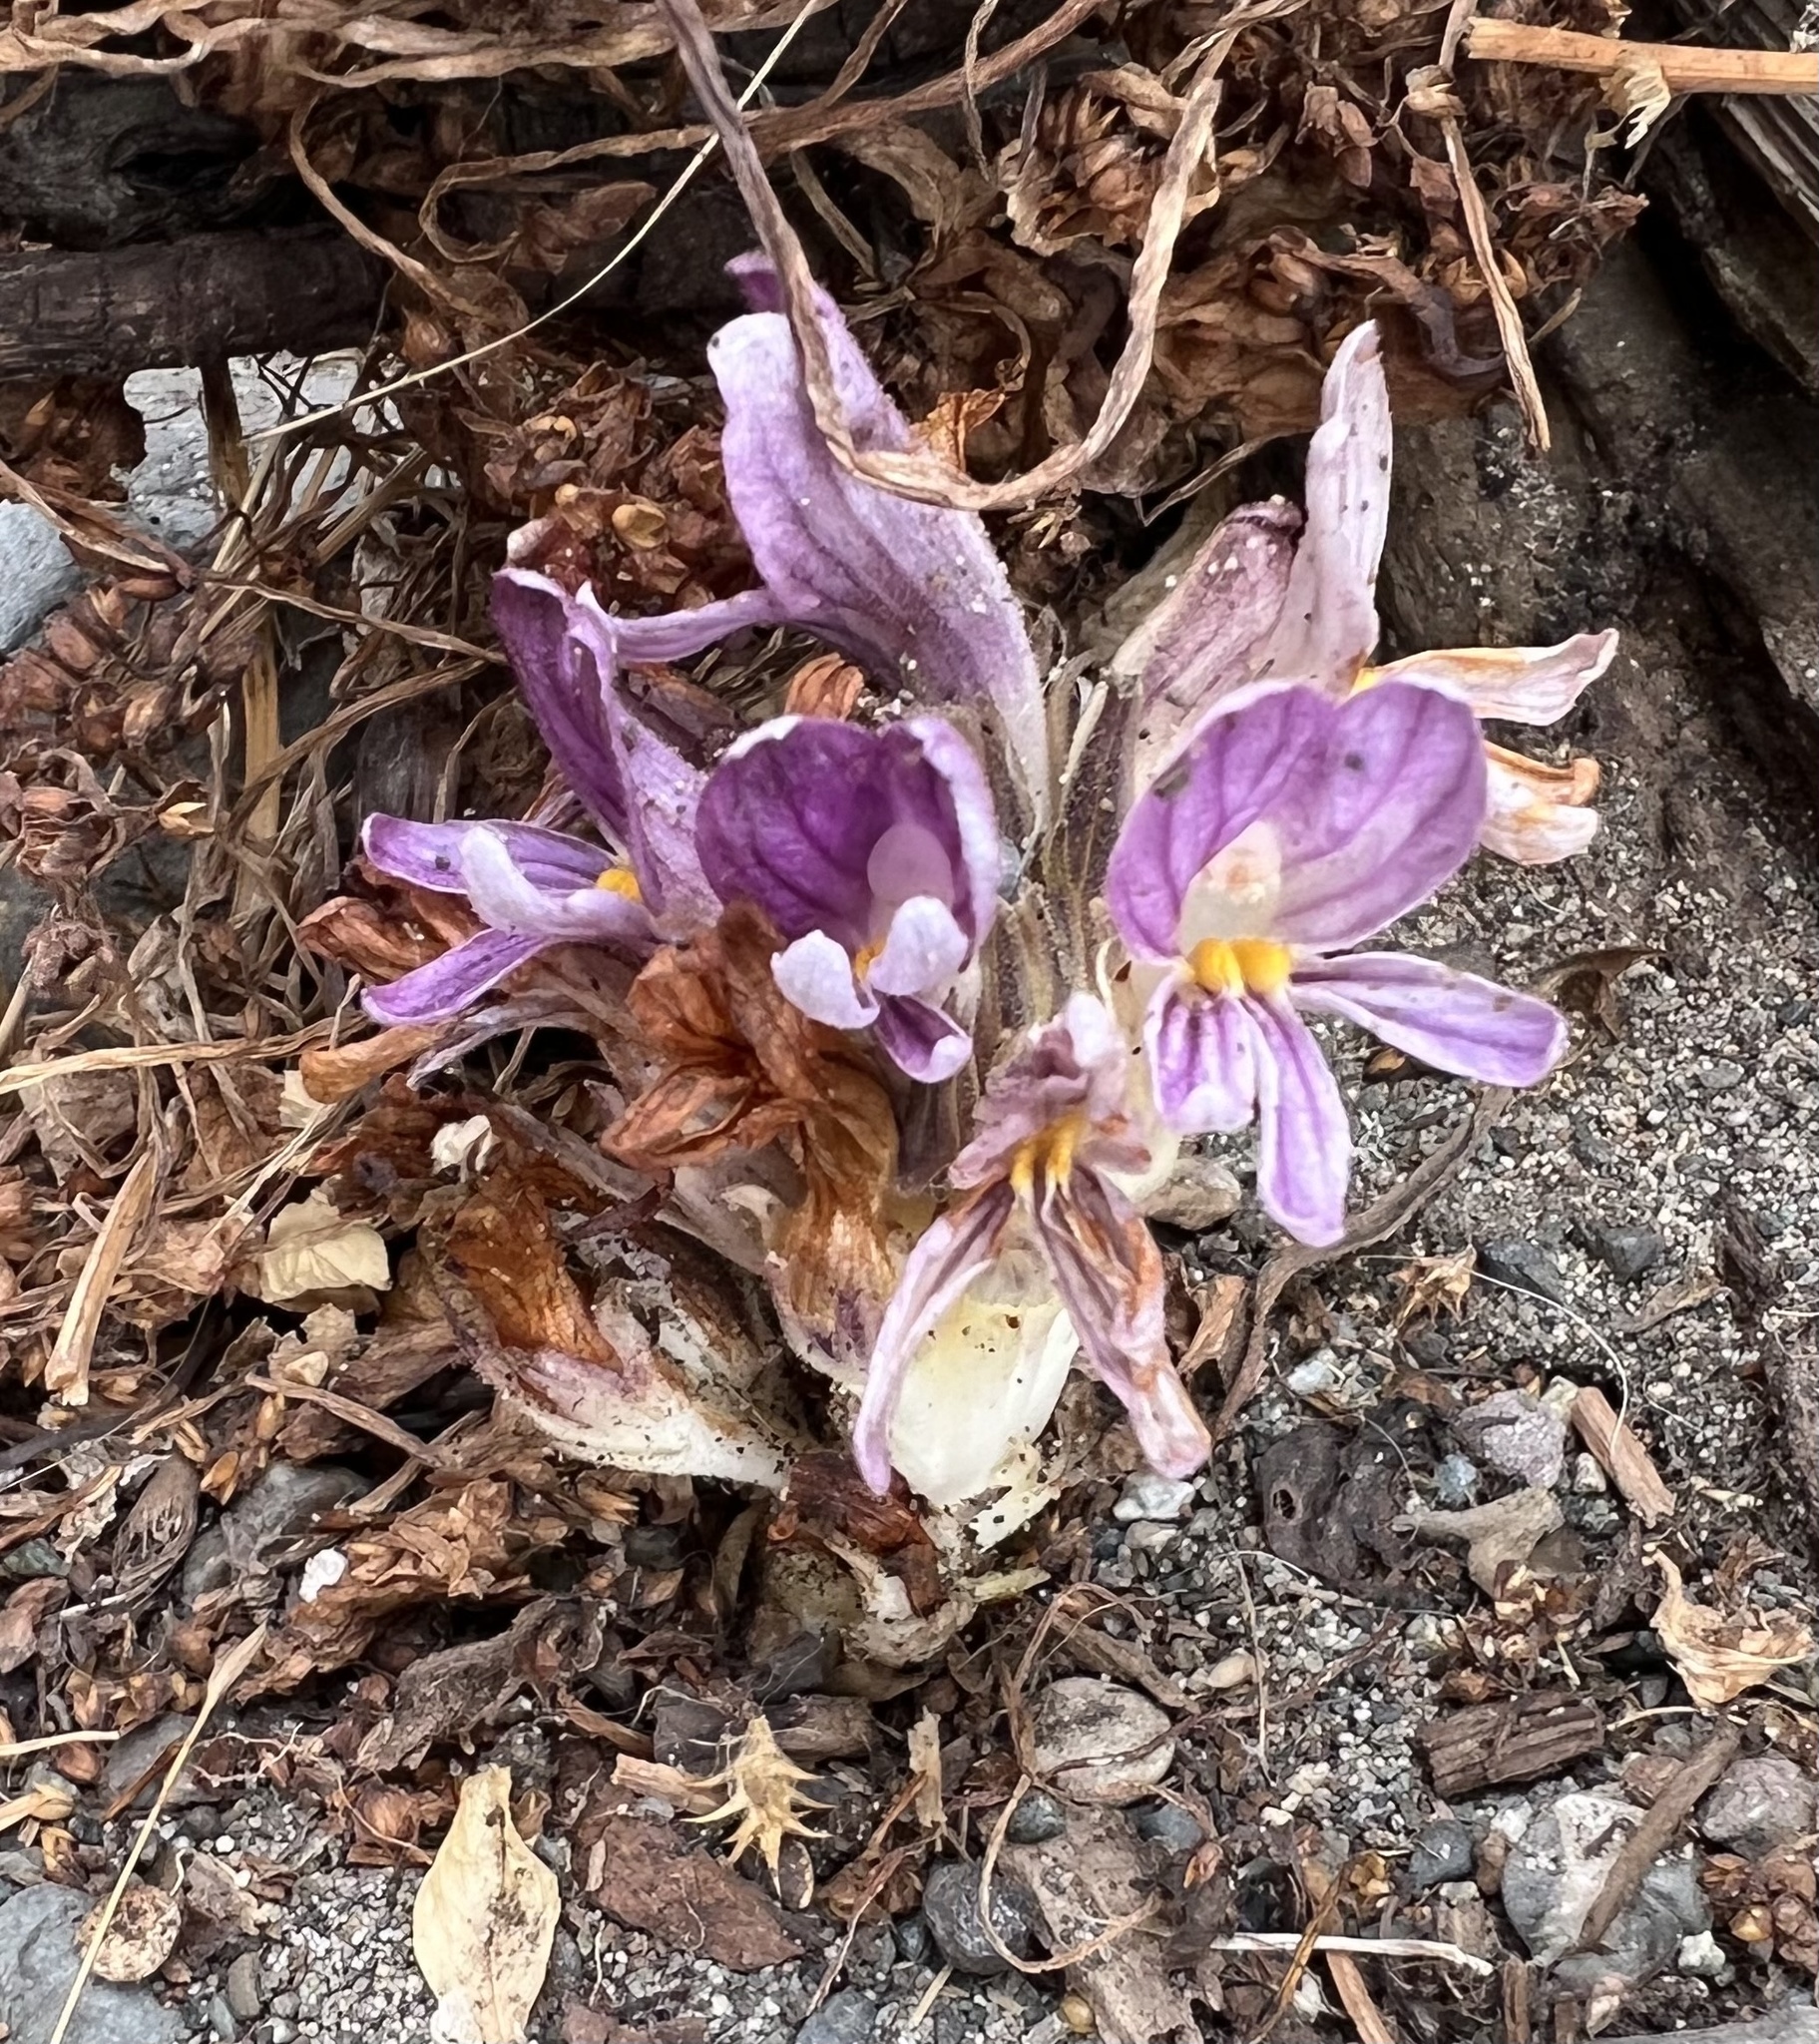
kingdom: Plantae
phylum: Tracheophyta
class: Magnoliopsida
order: Lamiales
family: Orobanchaceae
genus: Aphyllon
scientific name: Aphyllon californicum
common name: California broomrape
